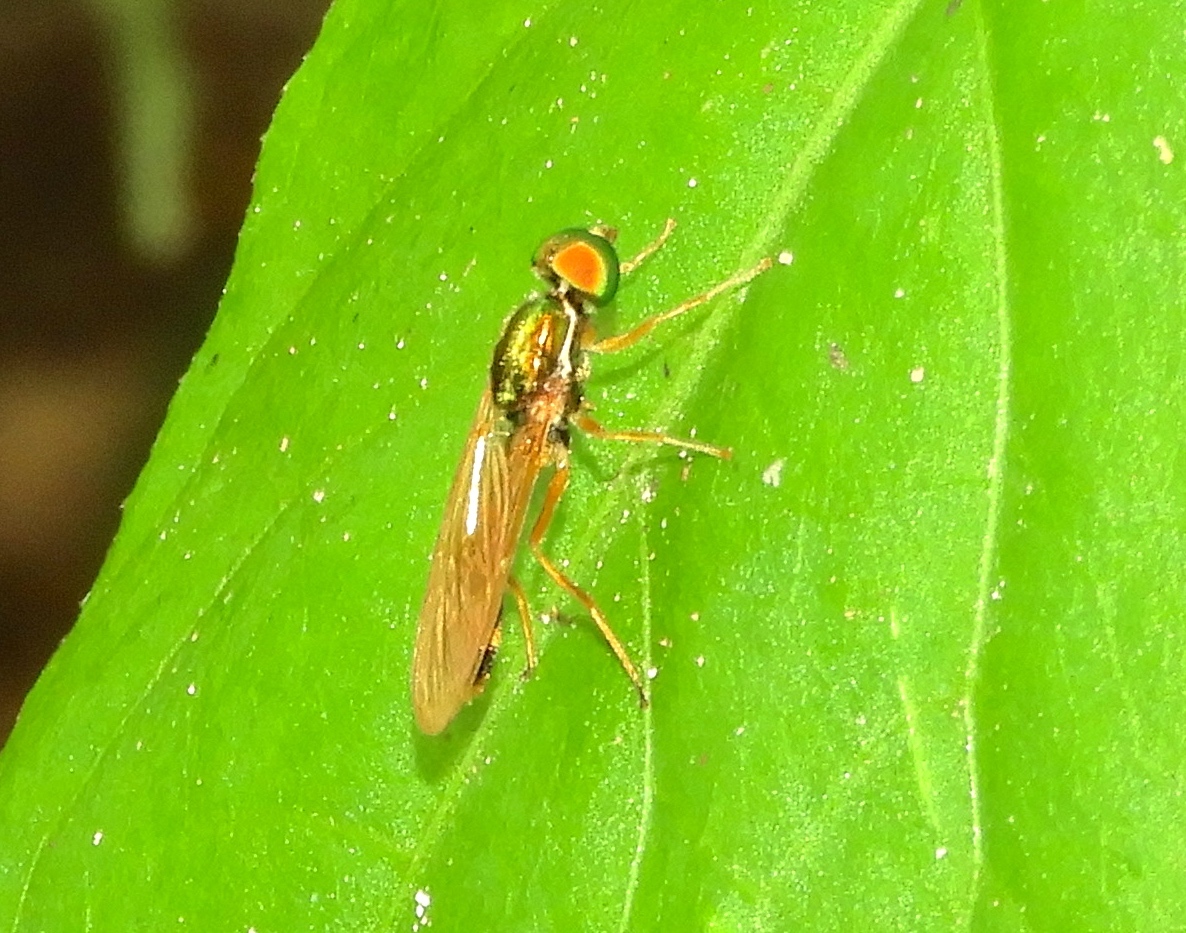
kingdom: Animalia
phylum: Arthropoda
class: Insecta
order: Diptera
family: Stratiomyidae
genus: Sargus
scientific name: Sargus
